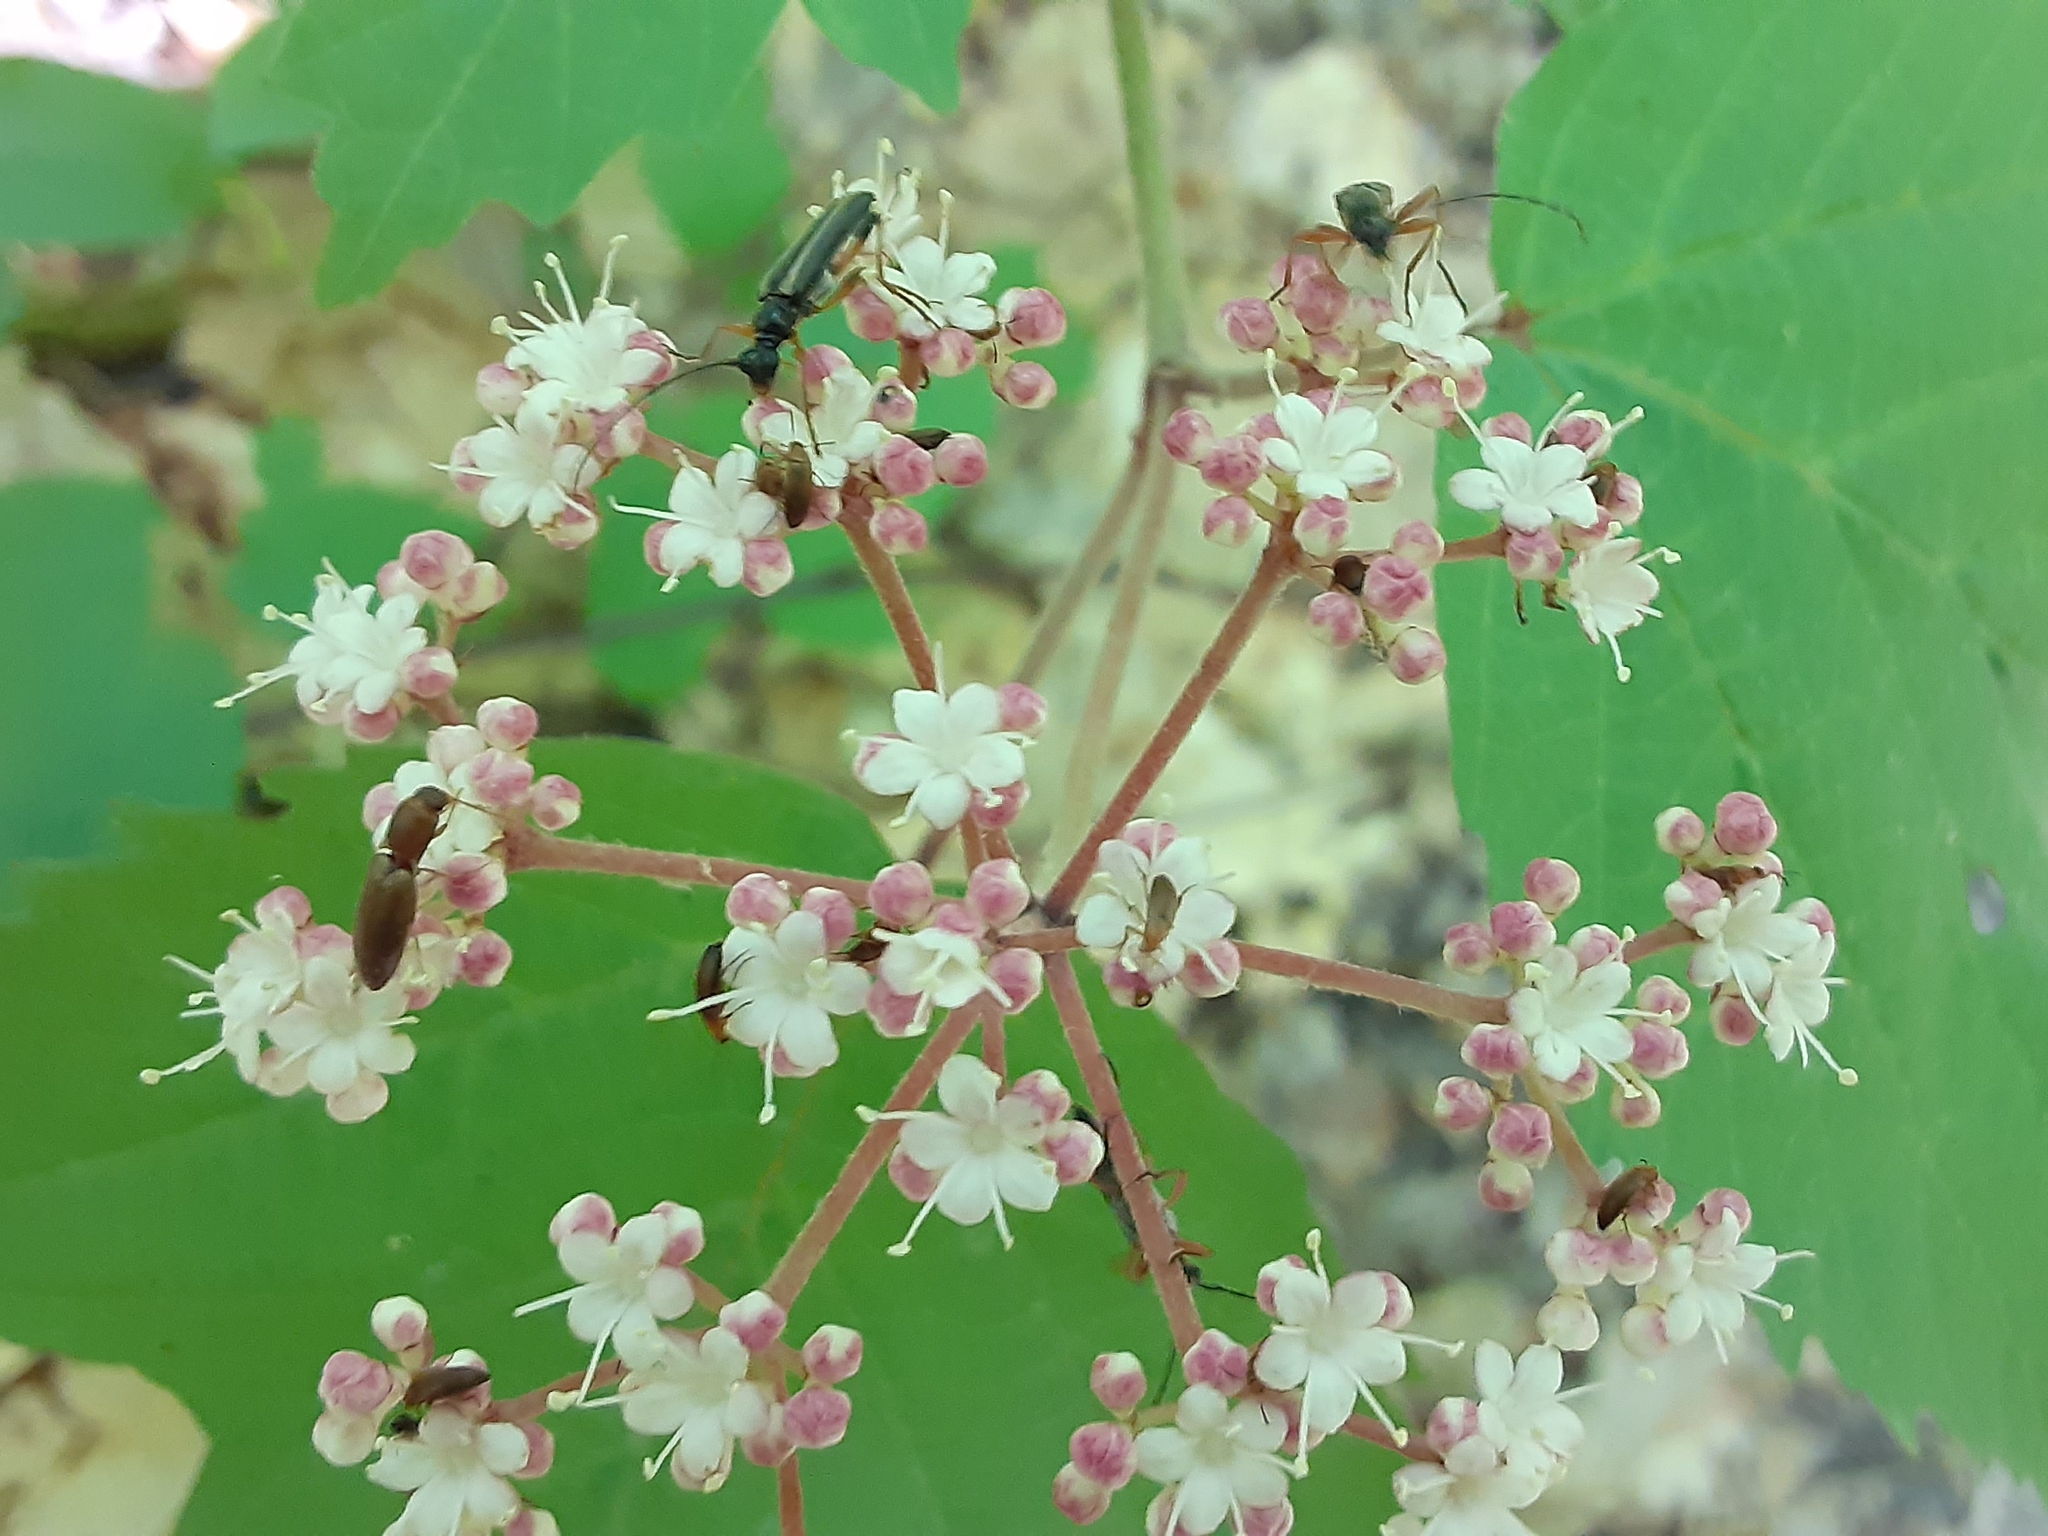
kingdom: Plantae
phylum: Tracheophyta
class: Magnoliopsida
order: Dipsacales
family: Viburnaceae
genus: Viburnum
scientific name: Viburnum acerifolium
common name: Dockmackie
